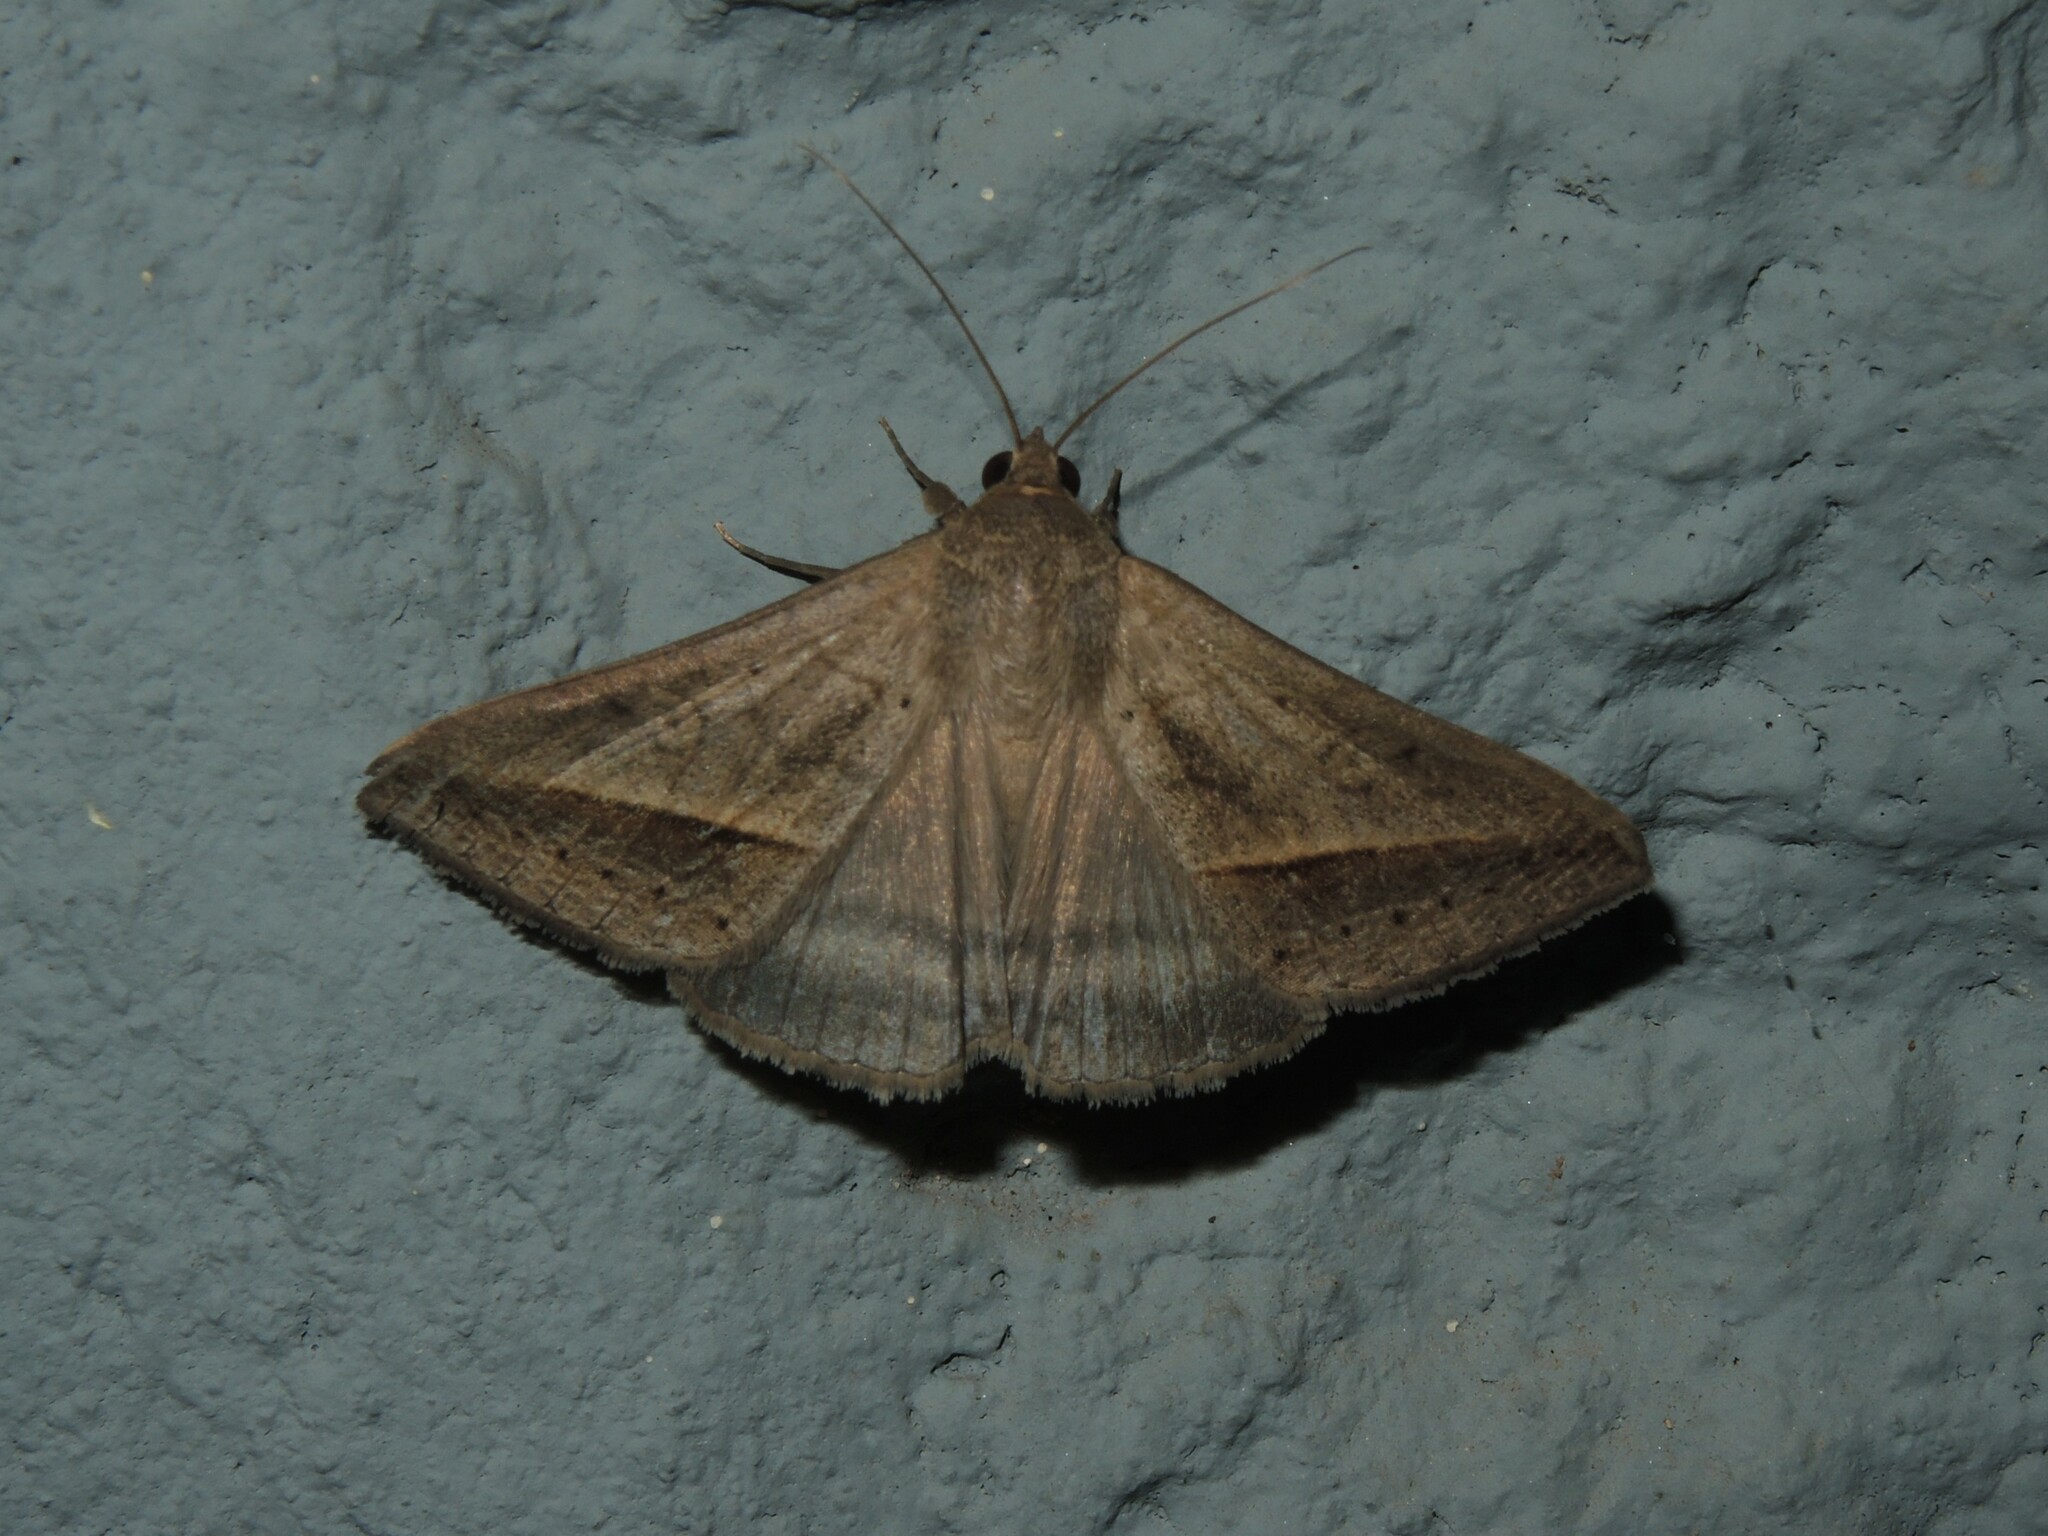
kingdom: Animalia
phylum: Arthropoda
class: Insecta
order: Lepidoptera
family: Erebidae
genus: Mocis
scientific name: Mocis frugalis
